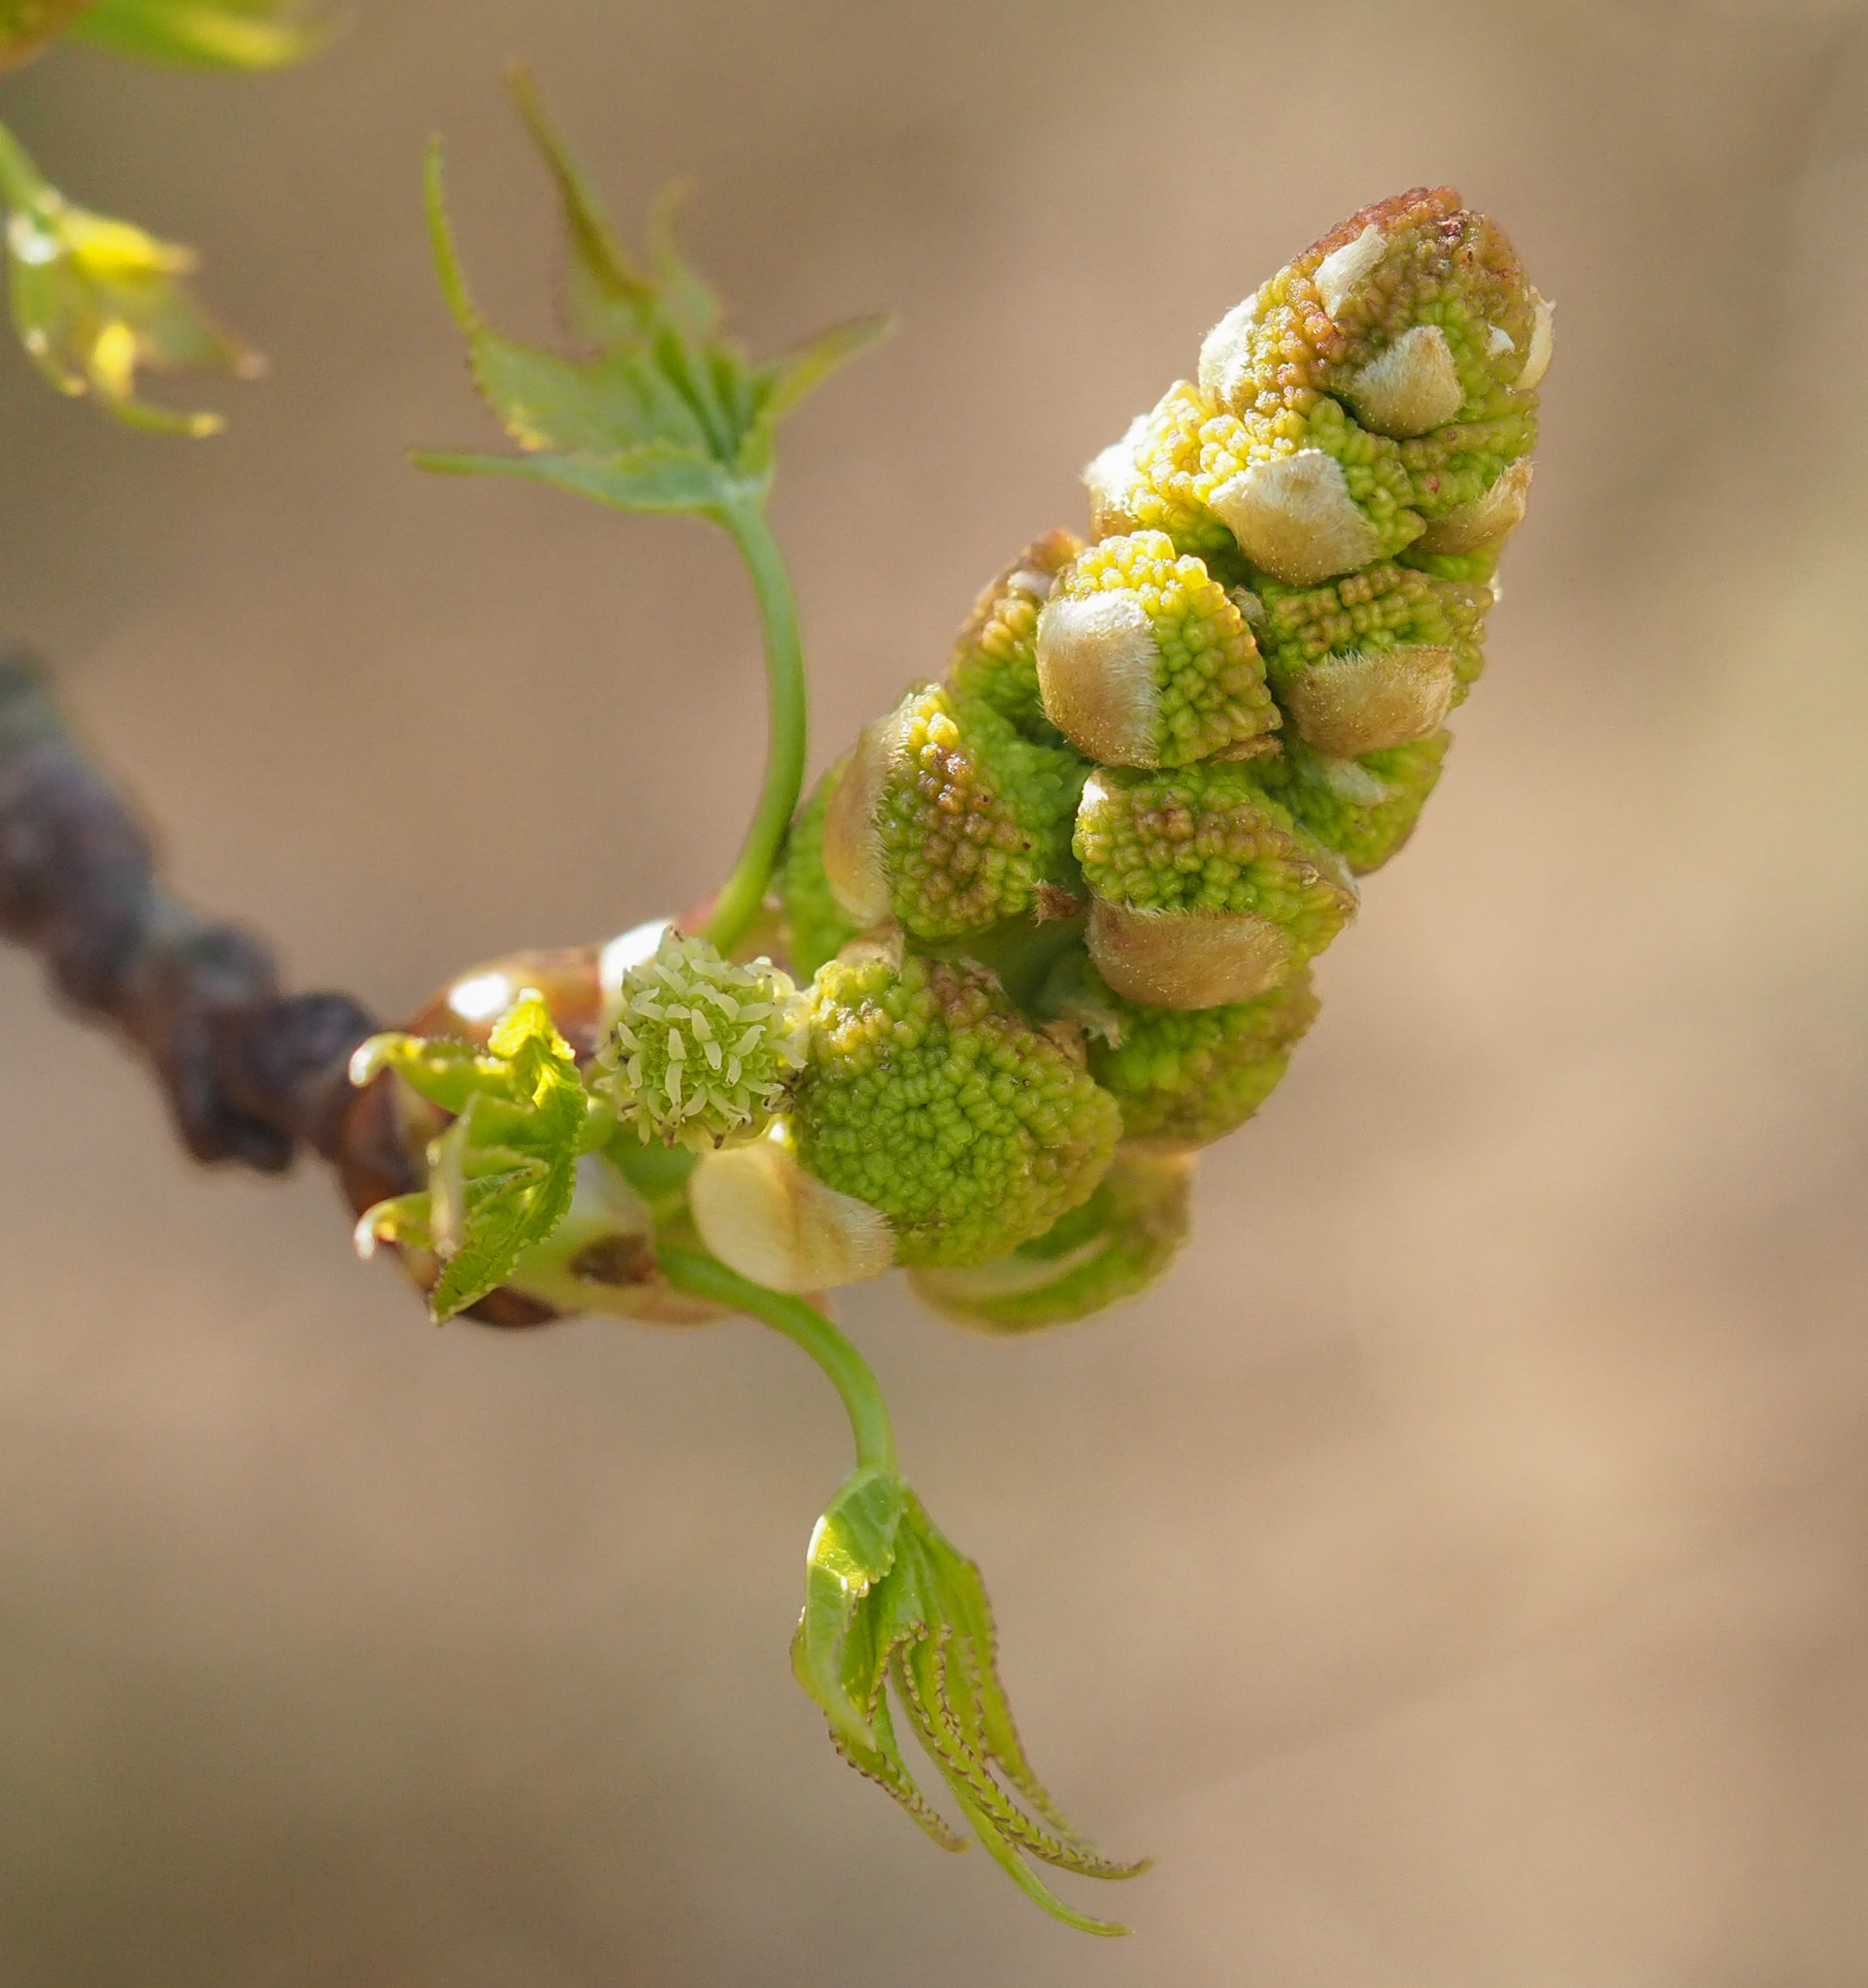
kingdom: Plantae
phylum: Tracheophyta
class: Magnoliopsida
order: Saxifragales
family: Altingiaceae
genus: Liquidambar
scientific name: Liquidambar styraciflua
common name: Sweet gum
